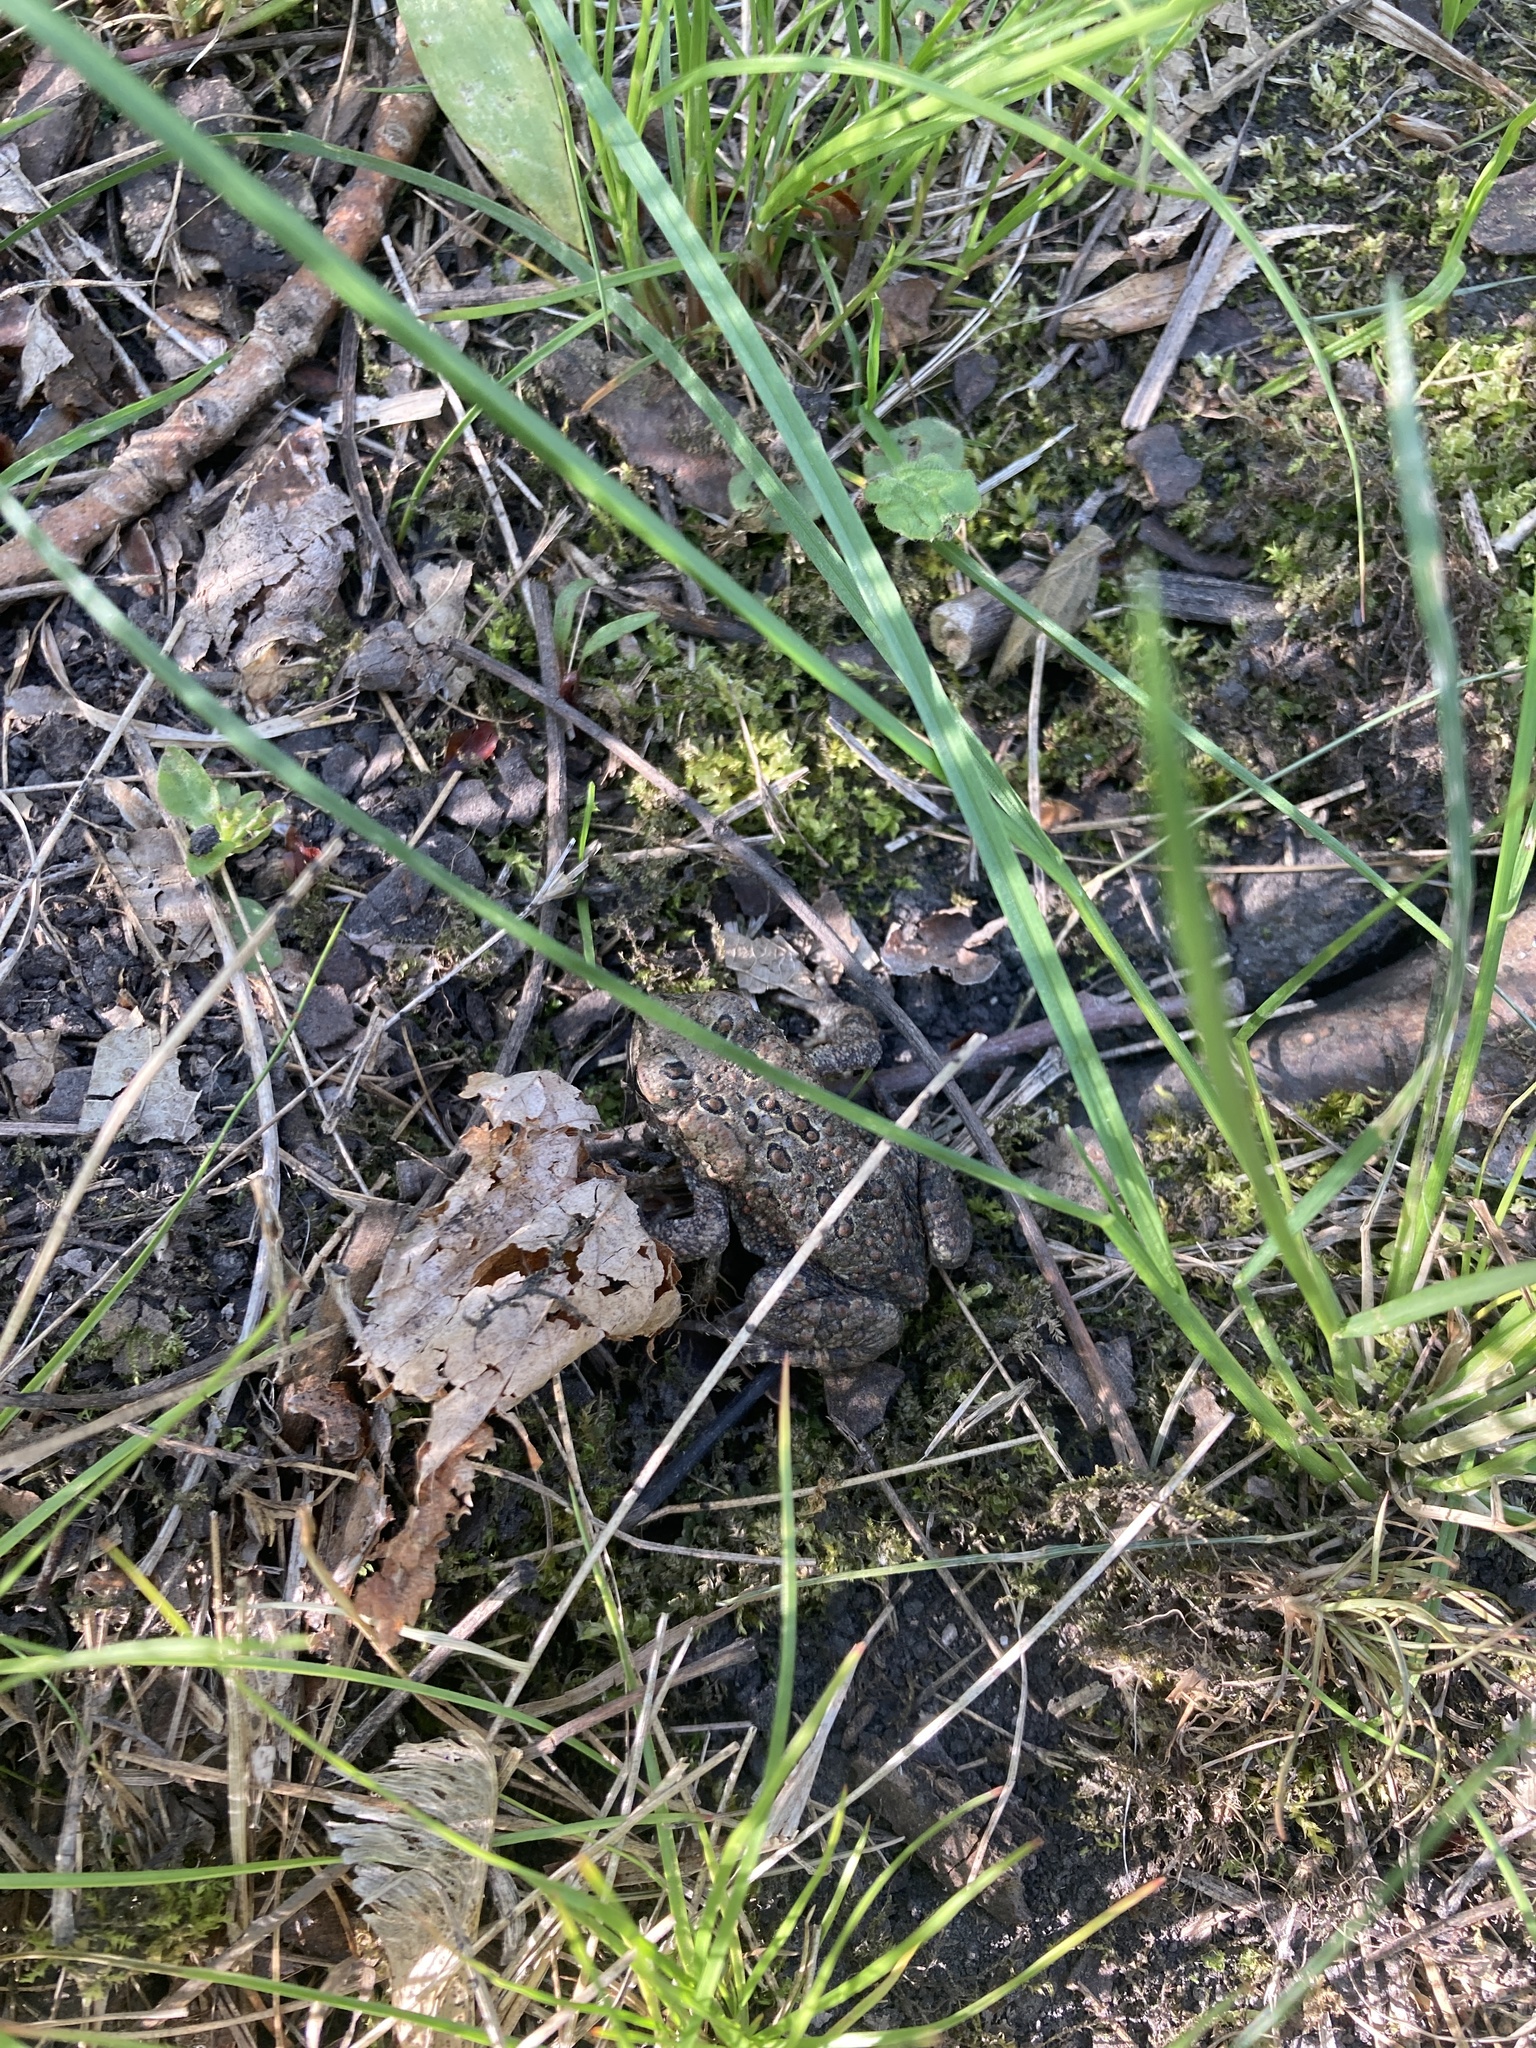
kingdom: Animalia
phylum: Chordata
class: Amphibia
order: Anura
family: Bufonidae
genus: Anaxyrus
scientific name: Anaxyrus americanus
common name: American toad
